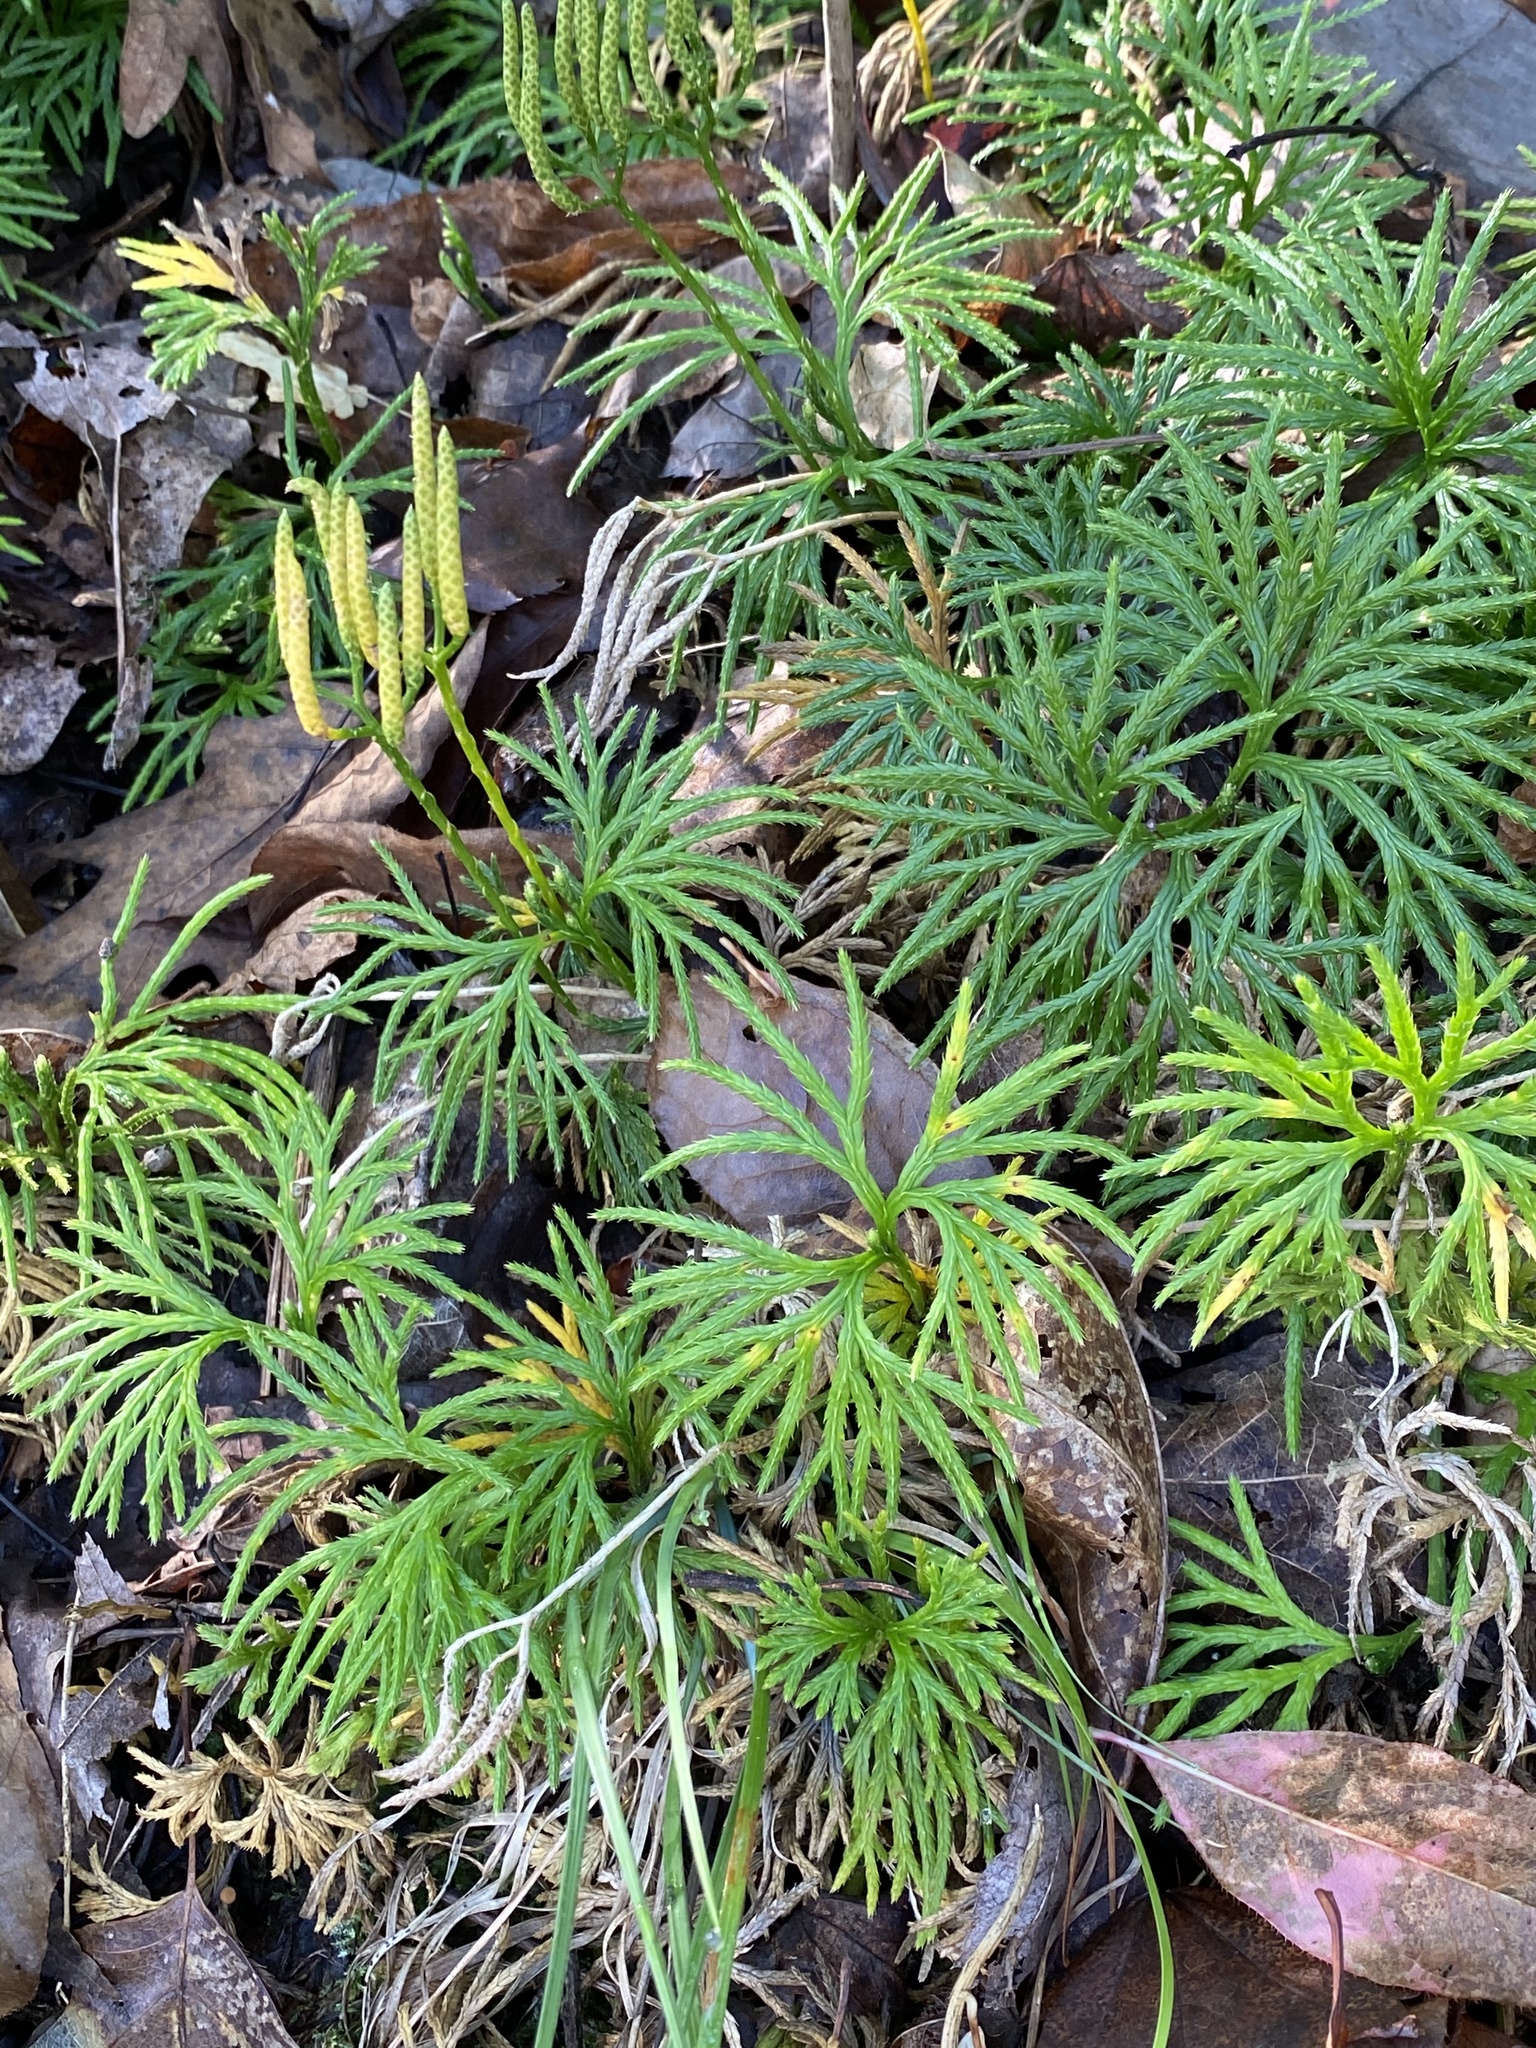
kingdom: Plantae
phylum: Tracheophyta
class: Lycopodiopsida
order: Lycopodiales
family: Lycopodiaceae
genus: Diphasiastrum
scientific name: Diphasiastrum digitatum
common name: Southern running-pine
